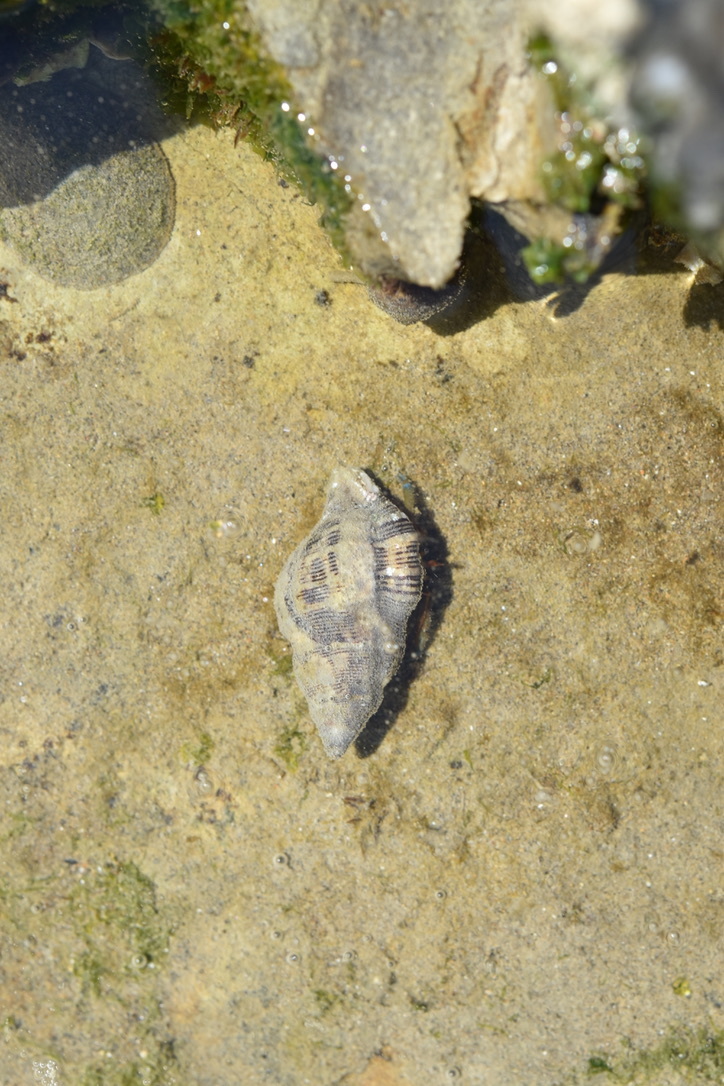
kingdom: Animalia
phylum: Mollusca
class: Gastropoda
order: Neogastropoda
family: Muricidae
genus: Roperia
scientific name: Roperia poulsoni
